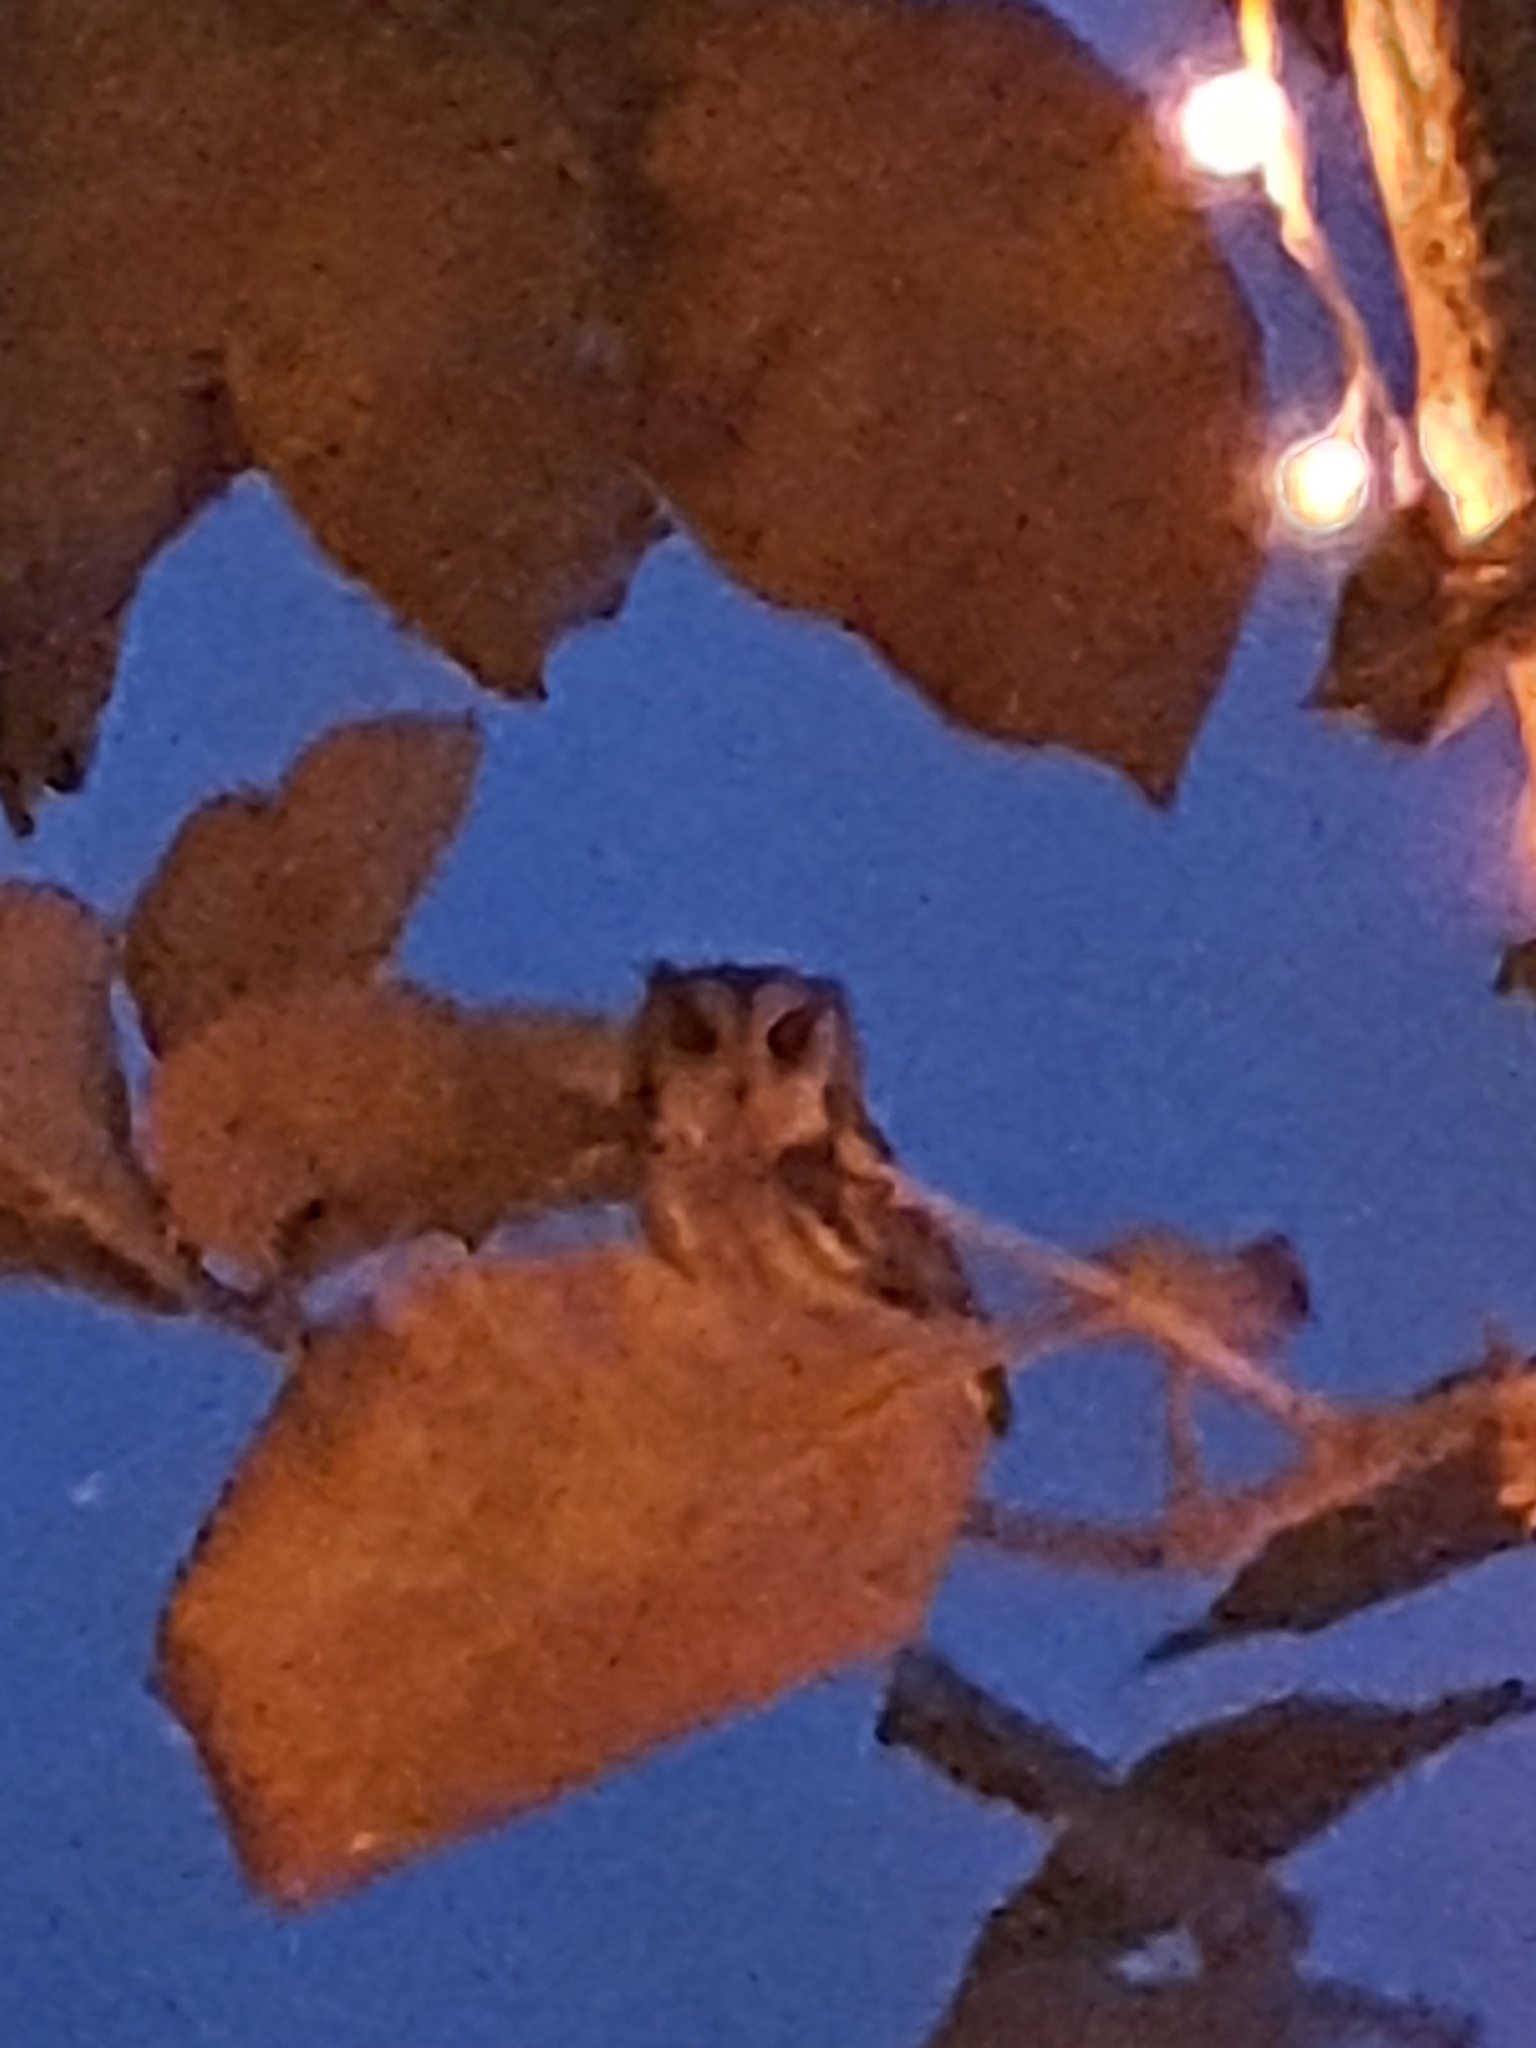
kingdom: Animalia
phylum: Chordata
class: Aves
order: Strigiformes
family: Strigidae
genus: Otus
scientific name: Otus bakkamoena
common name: Indian scops owl
